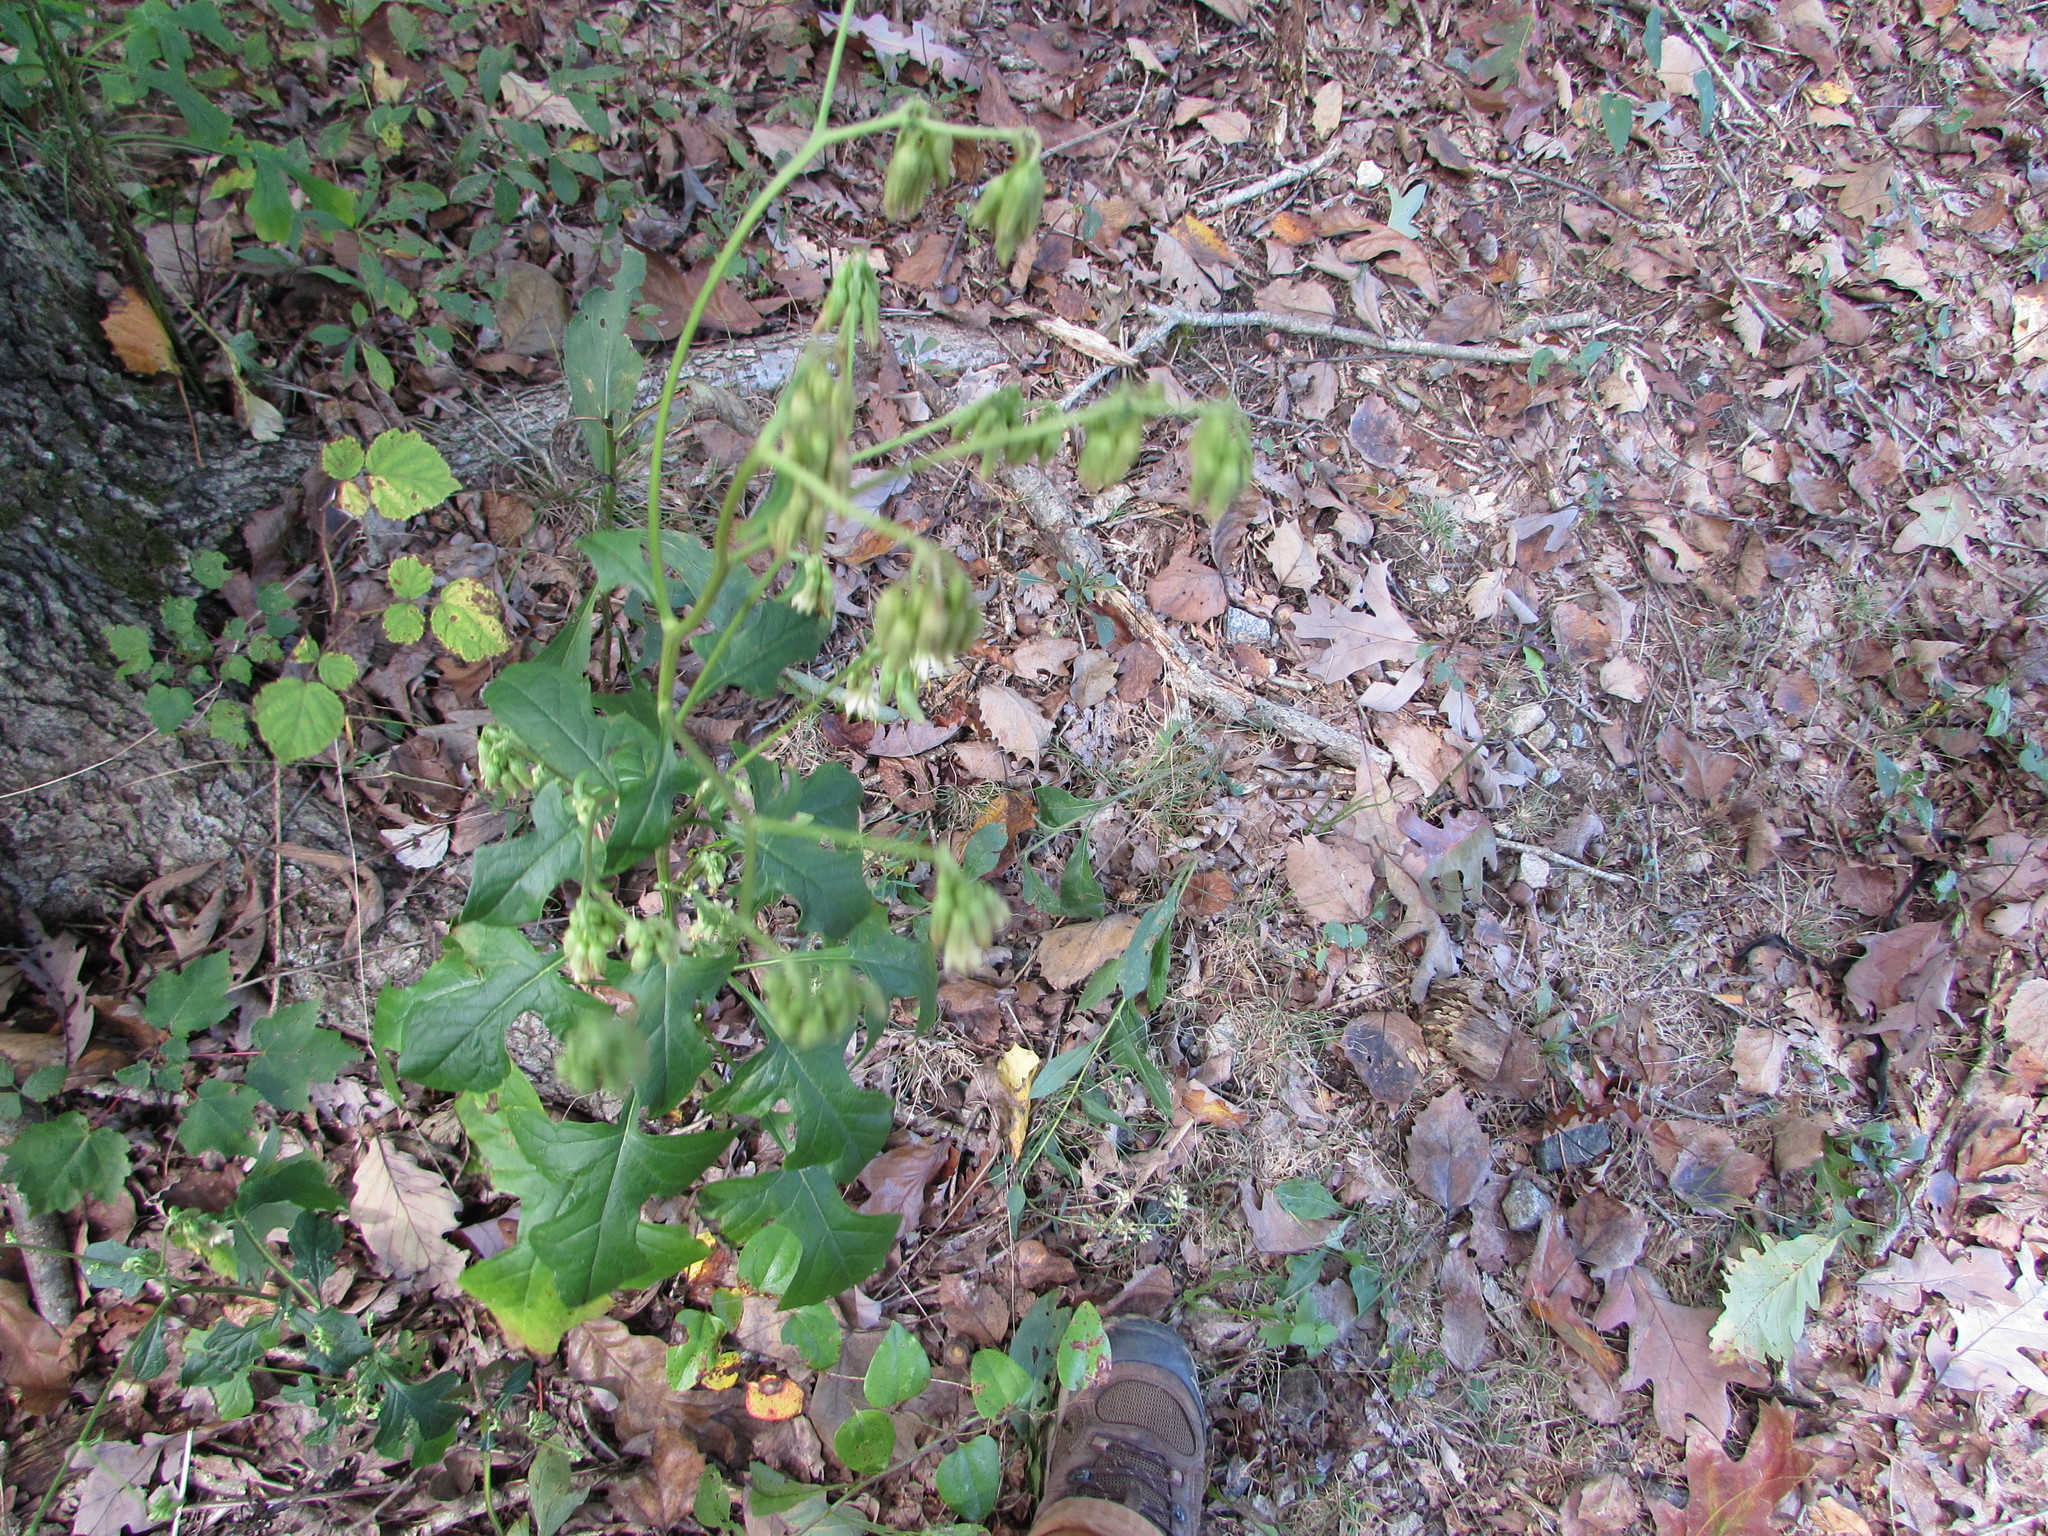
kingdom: Plantae
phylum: Tracheophyta
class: Magnoliopsida
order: Asterales
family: Asteraceae
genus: Nabalus
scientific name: Nabalus serpentarius
